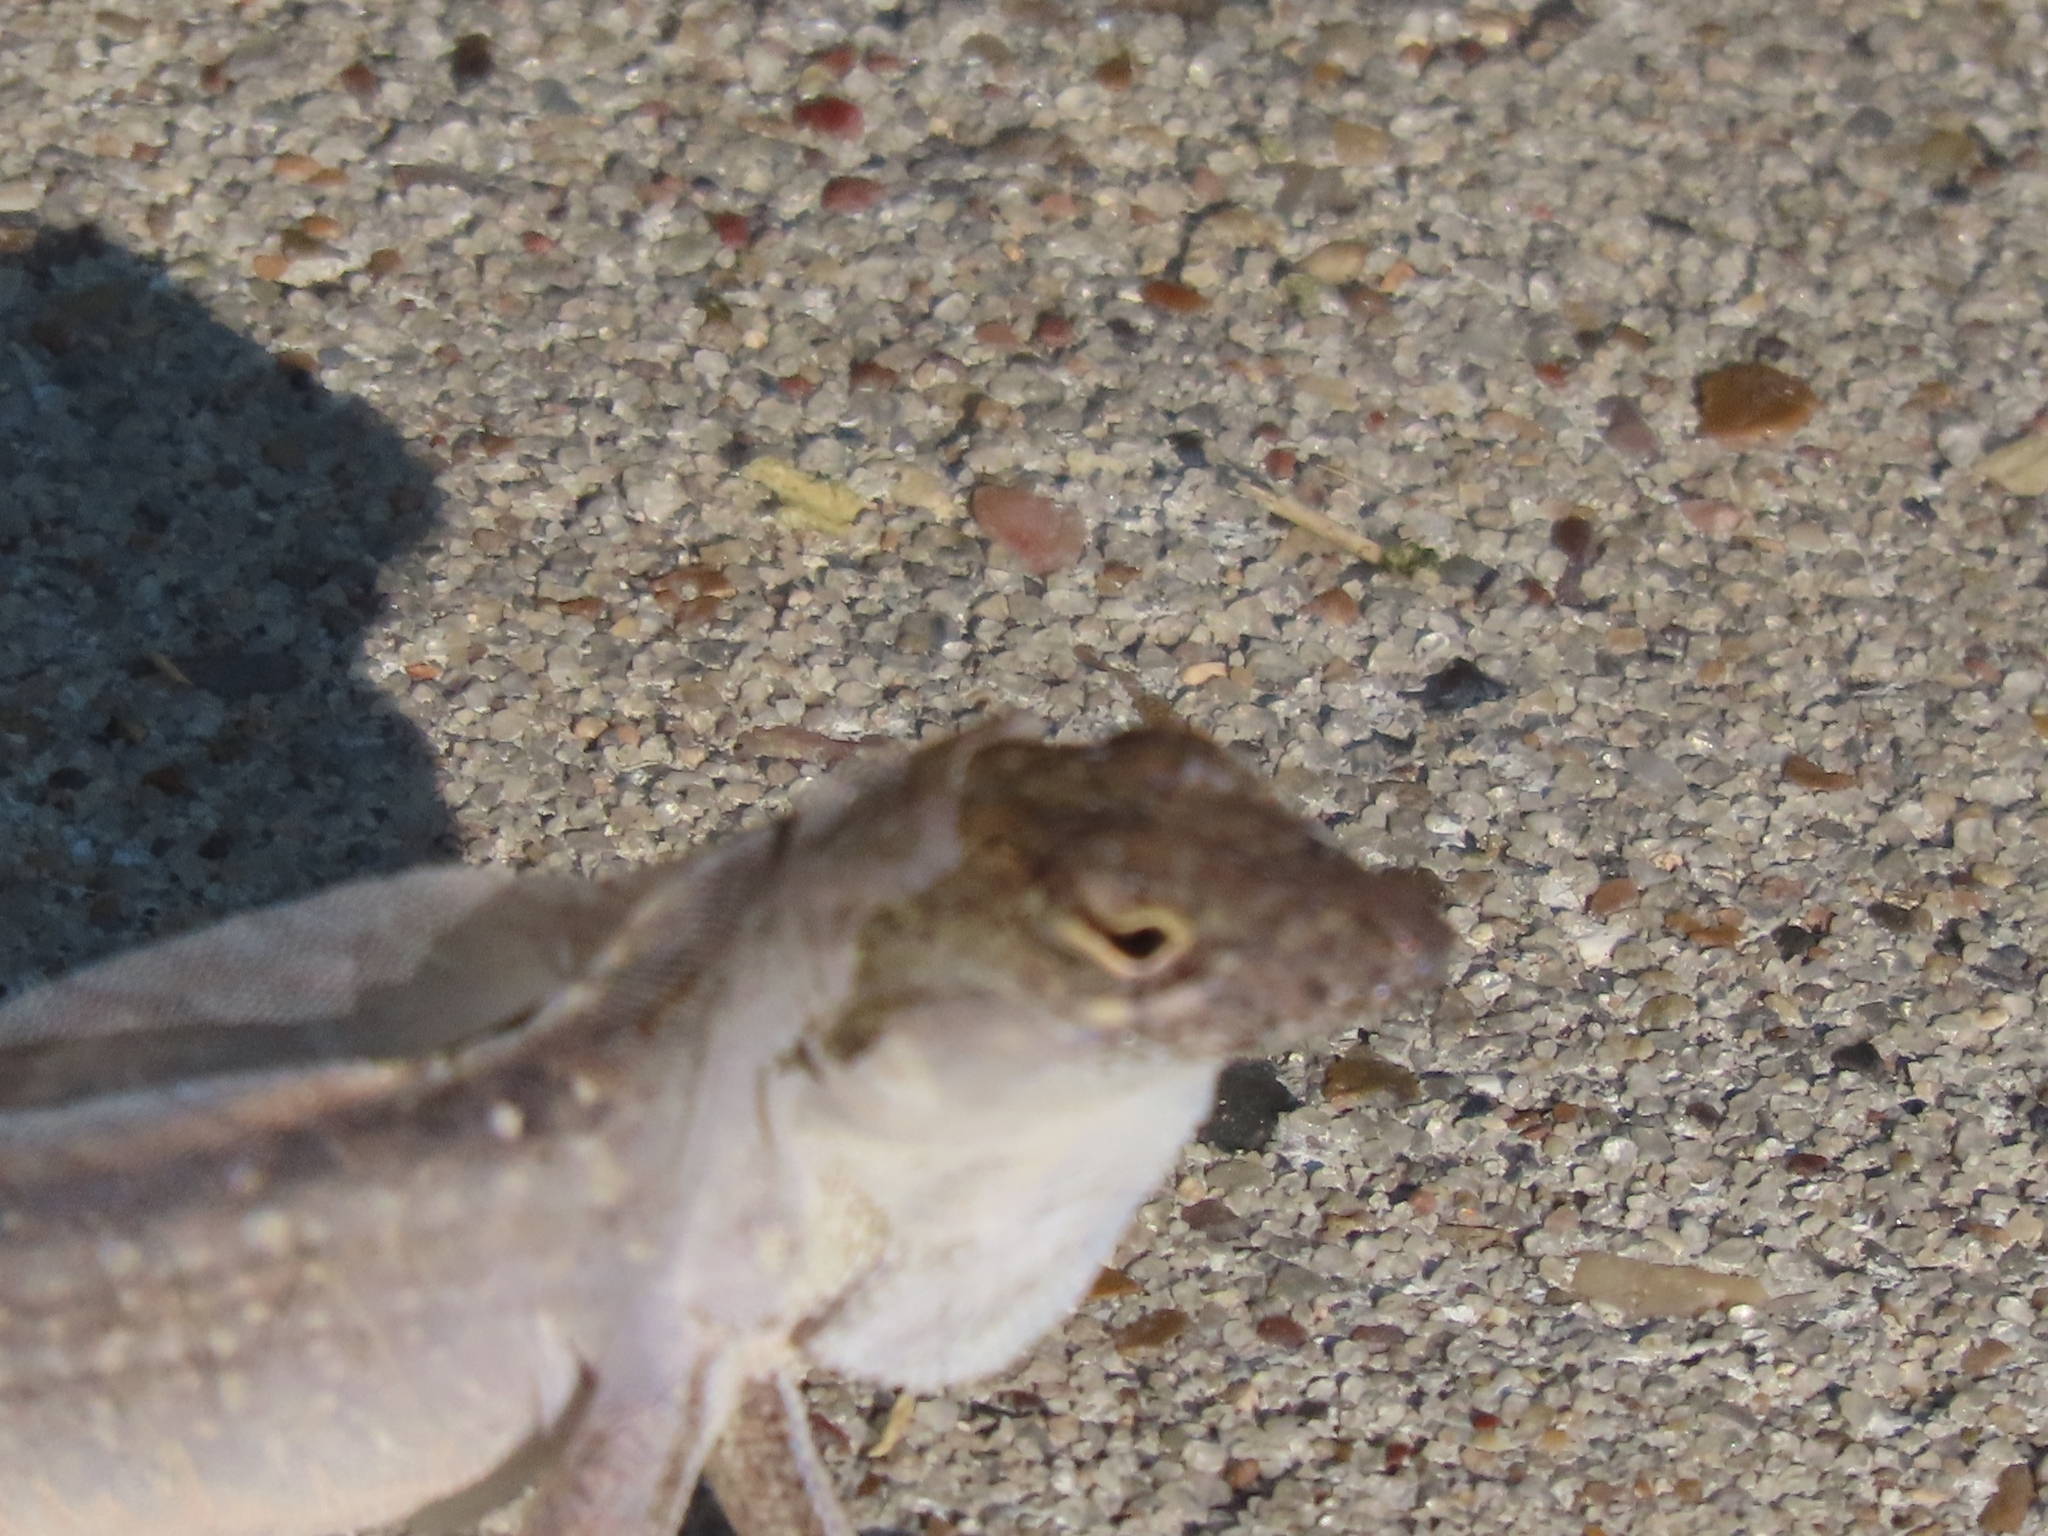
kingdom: Animalia
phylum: Chordata
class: Squamata
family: Dactyloidae
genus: Anolis
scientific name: Anolis sagrei
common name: Brown anole
